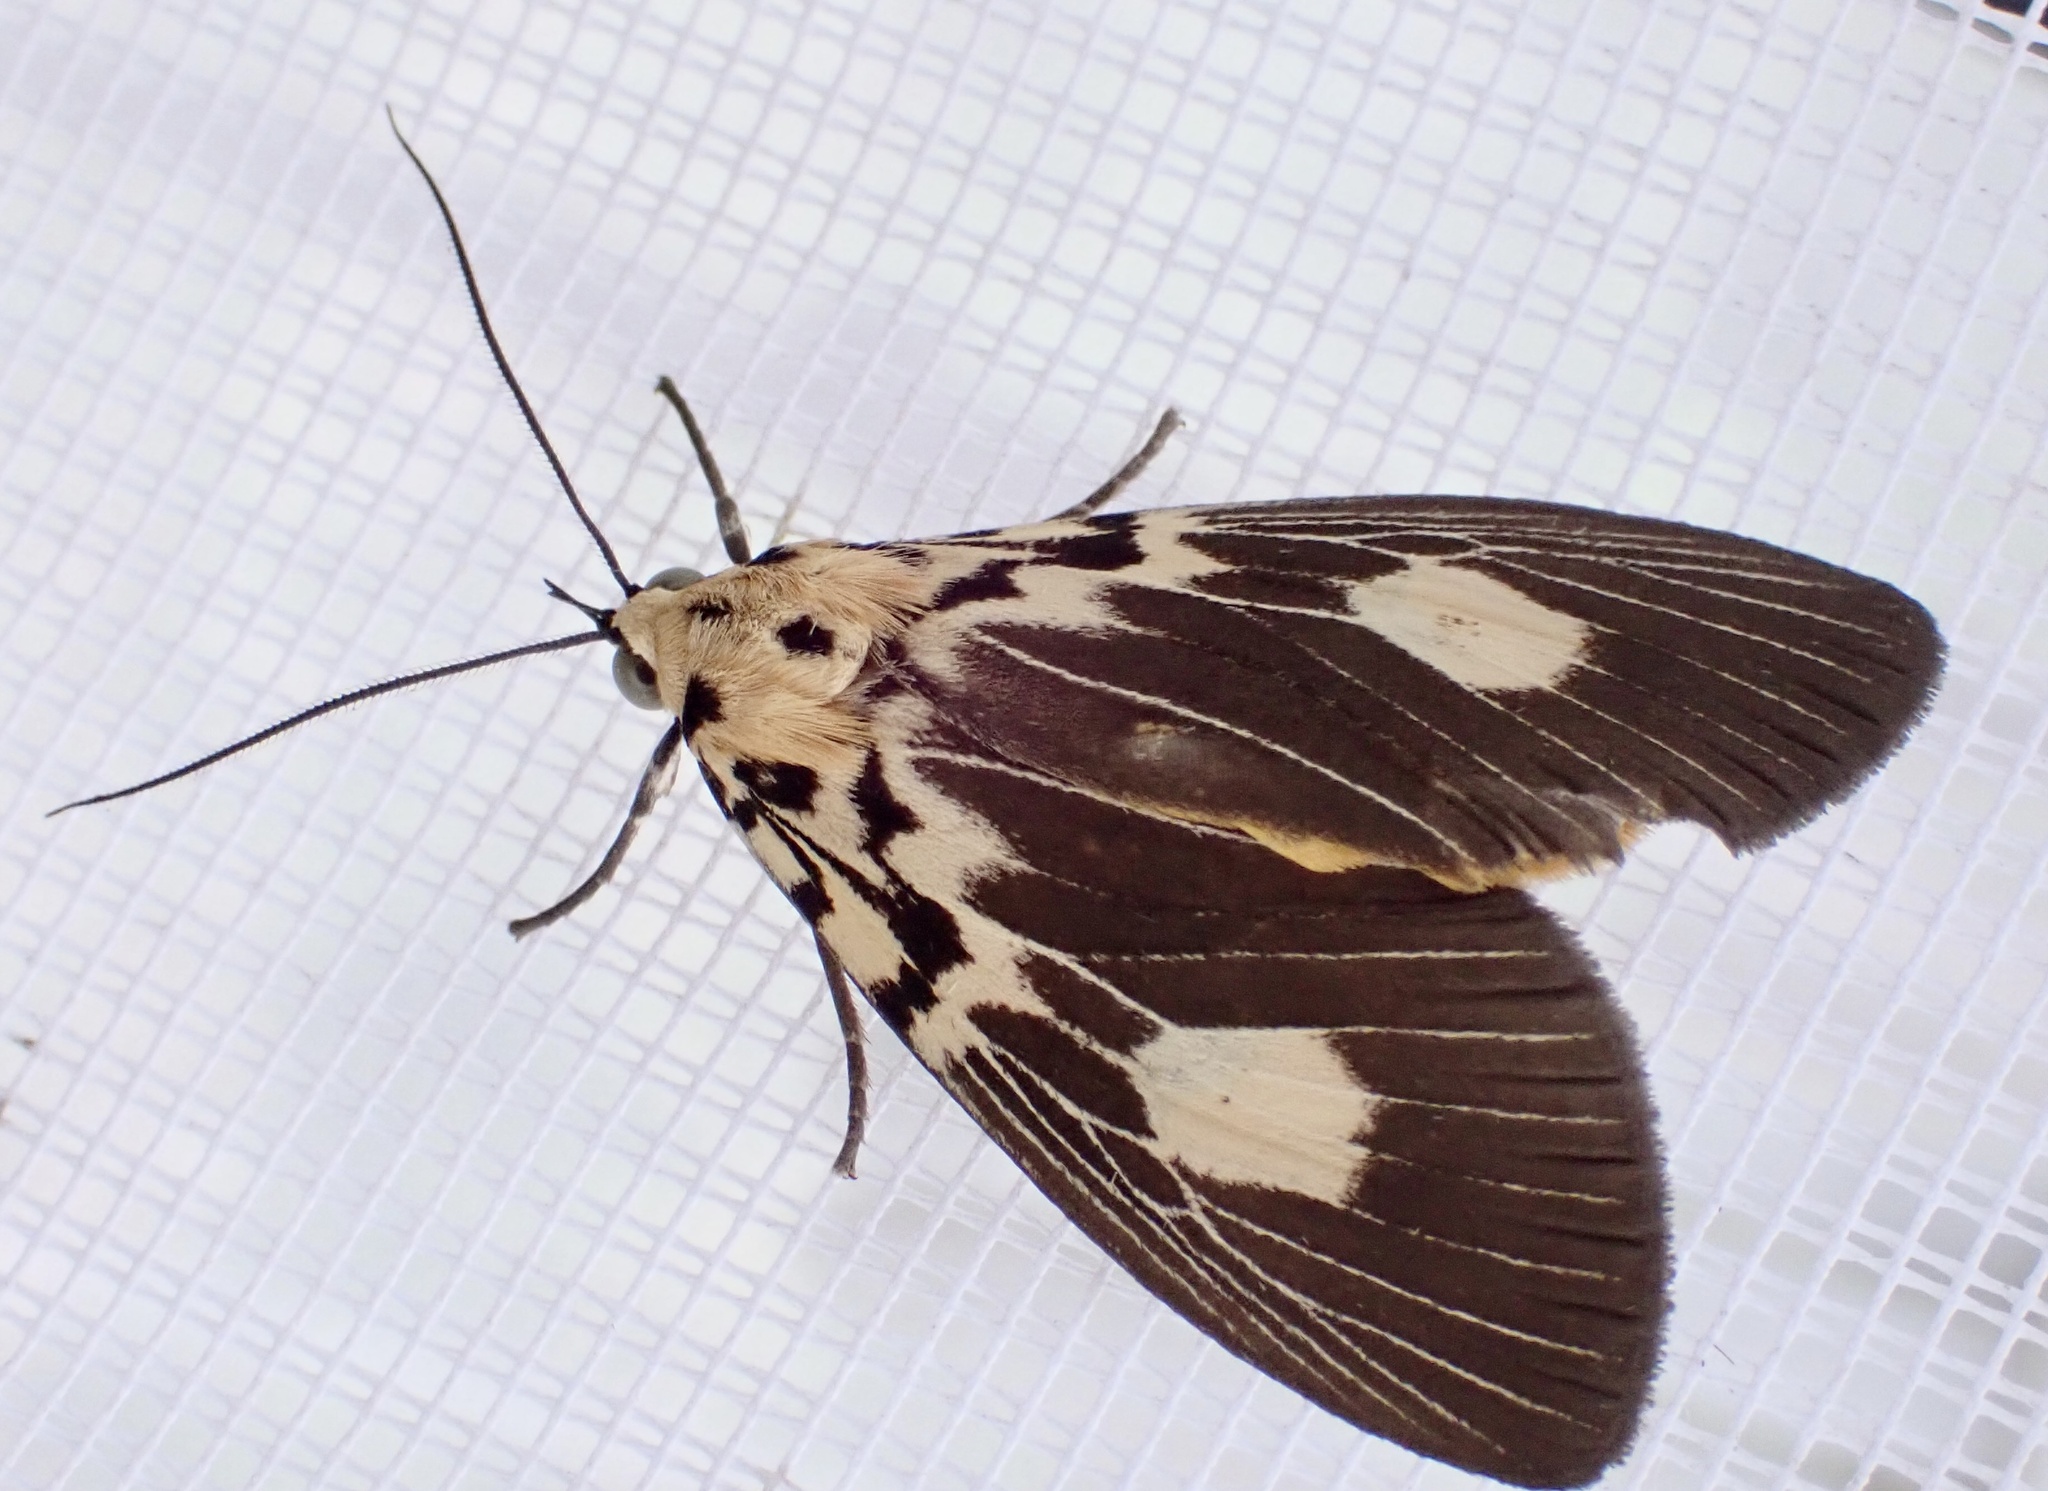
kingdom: Animalia
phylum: Arthropoda
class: Insecta
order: Lepidoptera
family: Erebidae
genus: Asota
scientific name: Asota plagiata
